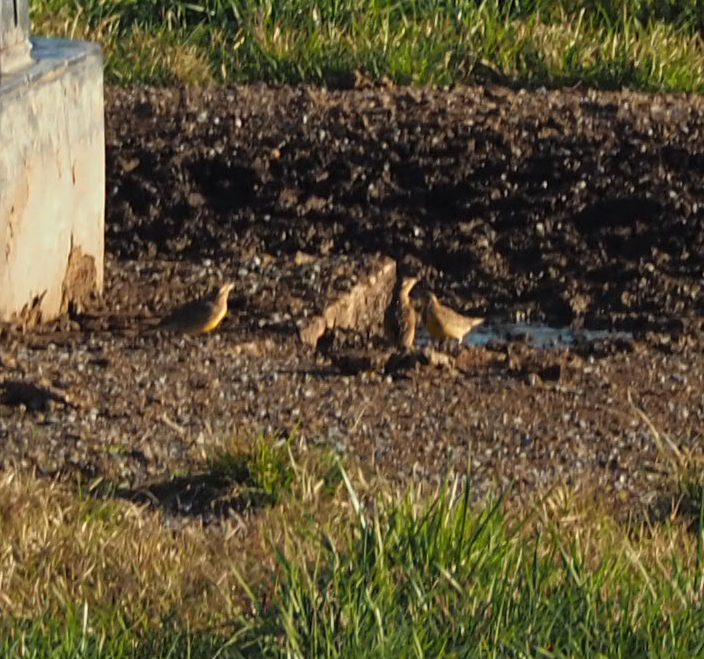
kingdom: Animalia
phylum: Chordata
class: Aves
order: Passeriformes
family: Icteridae
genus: Sturnella
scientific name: Sturnella magna
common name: Eastern meadowlark
